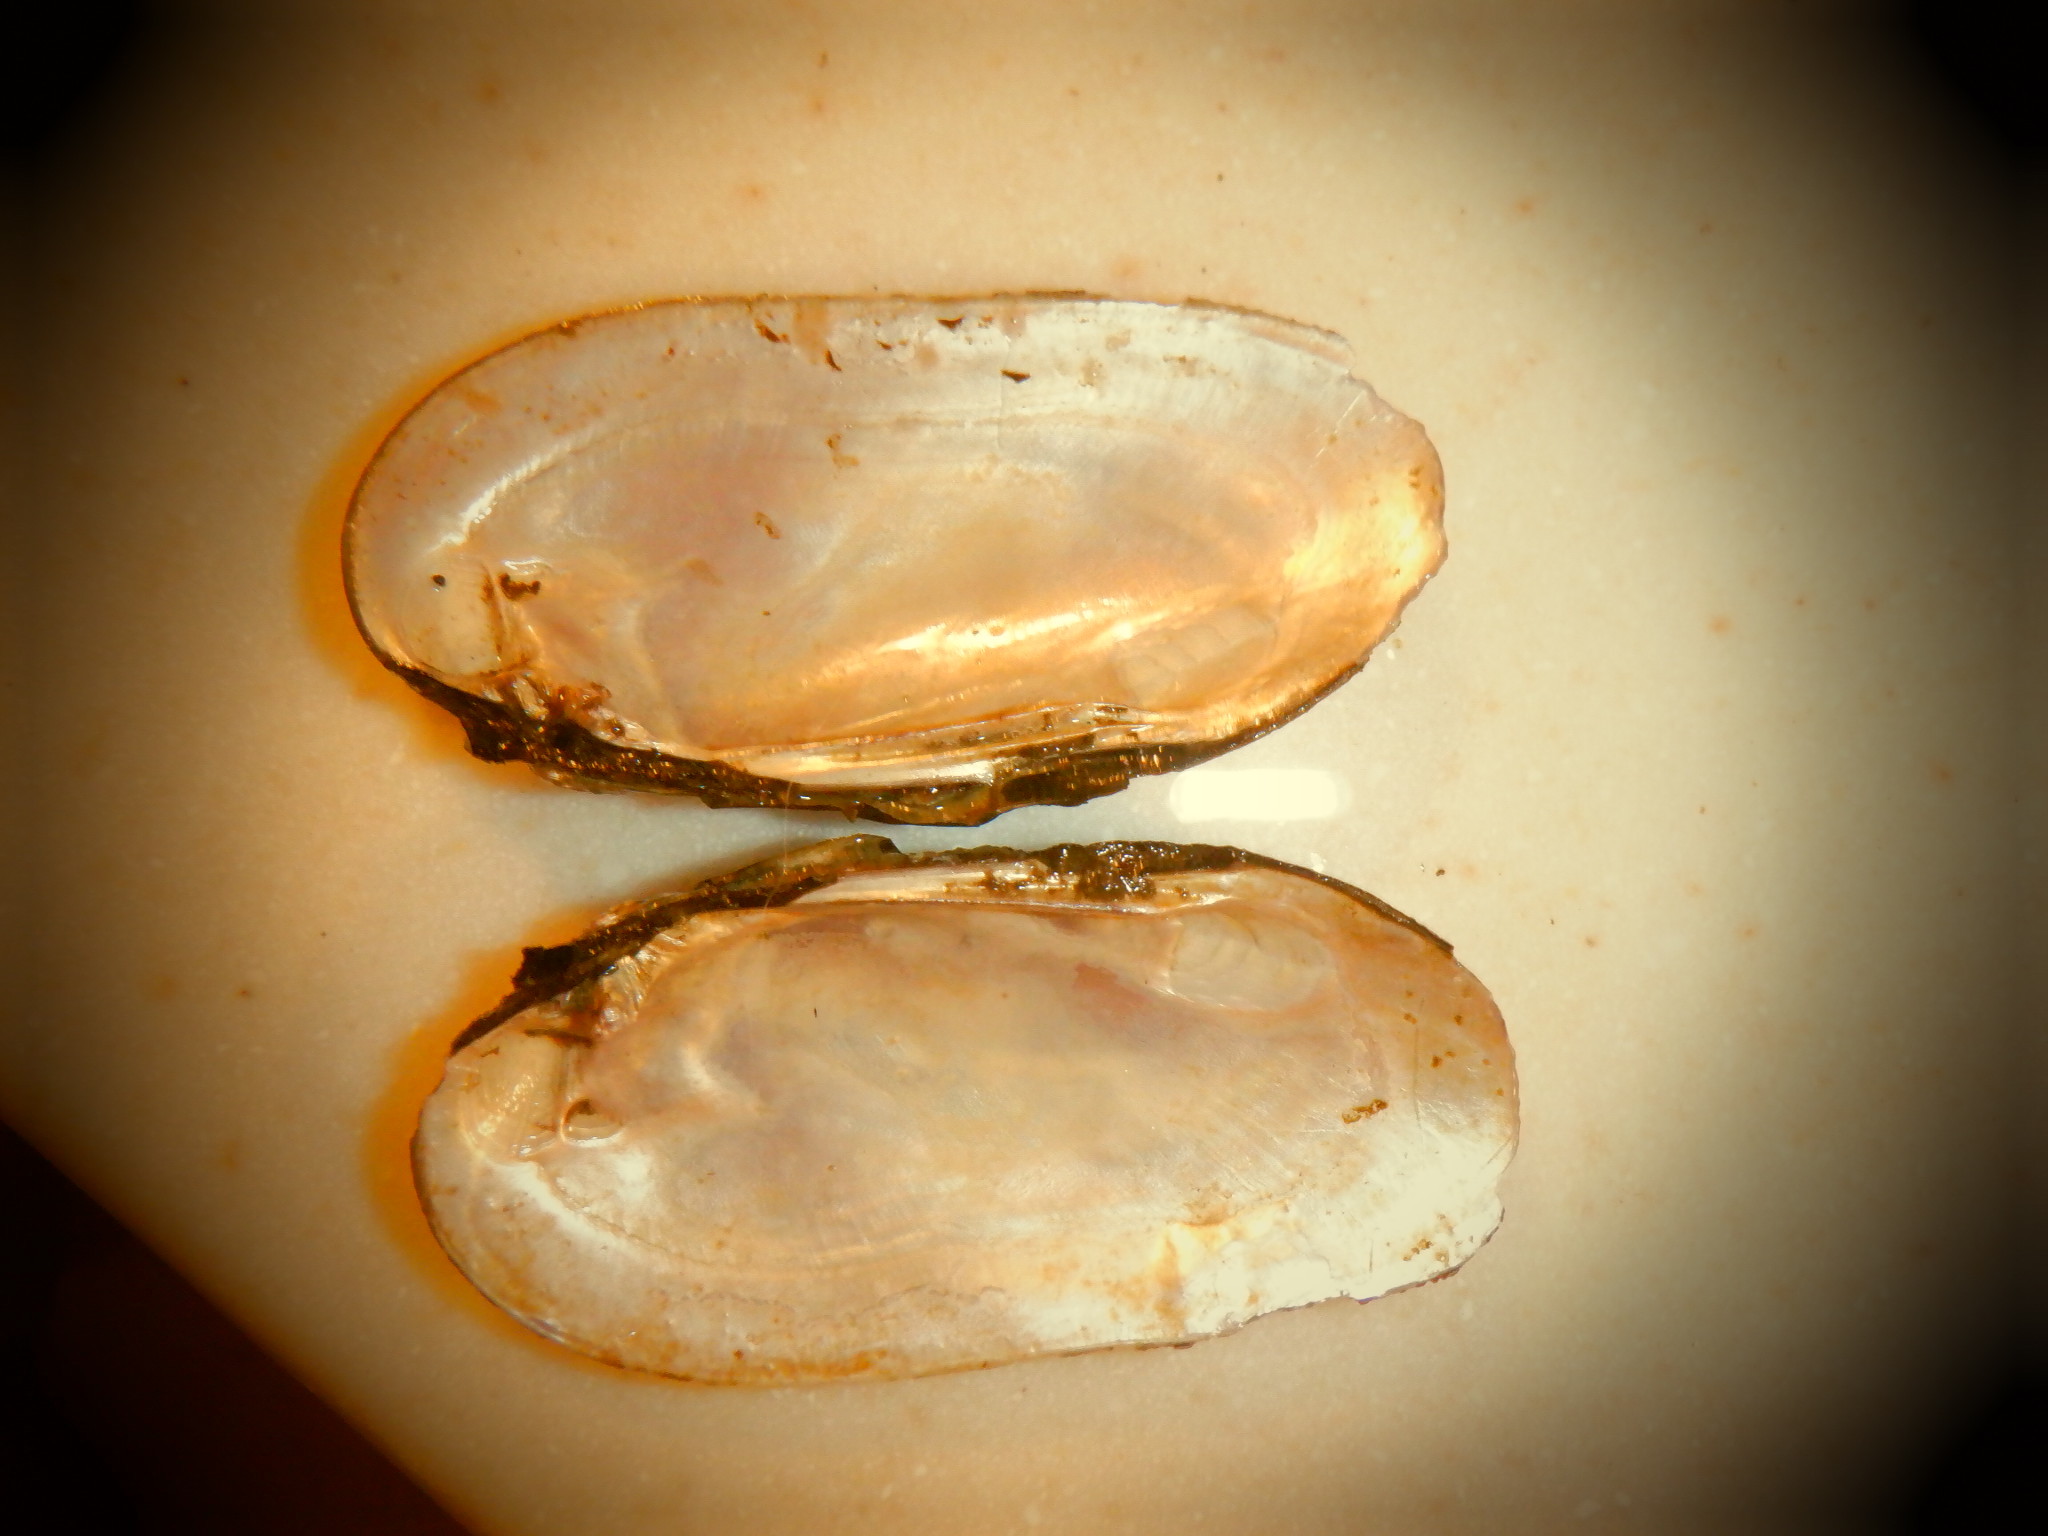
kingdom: Animalia
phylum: Mollusca
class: Bivalvia
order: Unionida
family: Unionidae
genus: Eurynia
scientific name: Eurynia dilatata
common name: Spike
